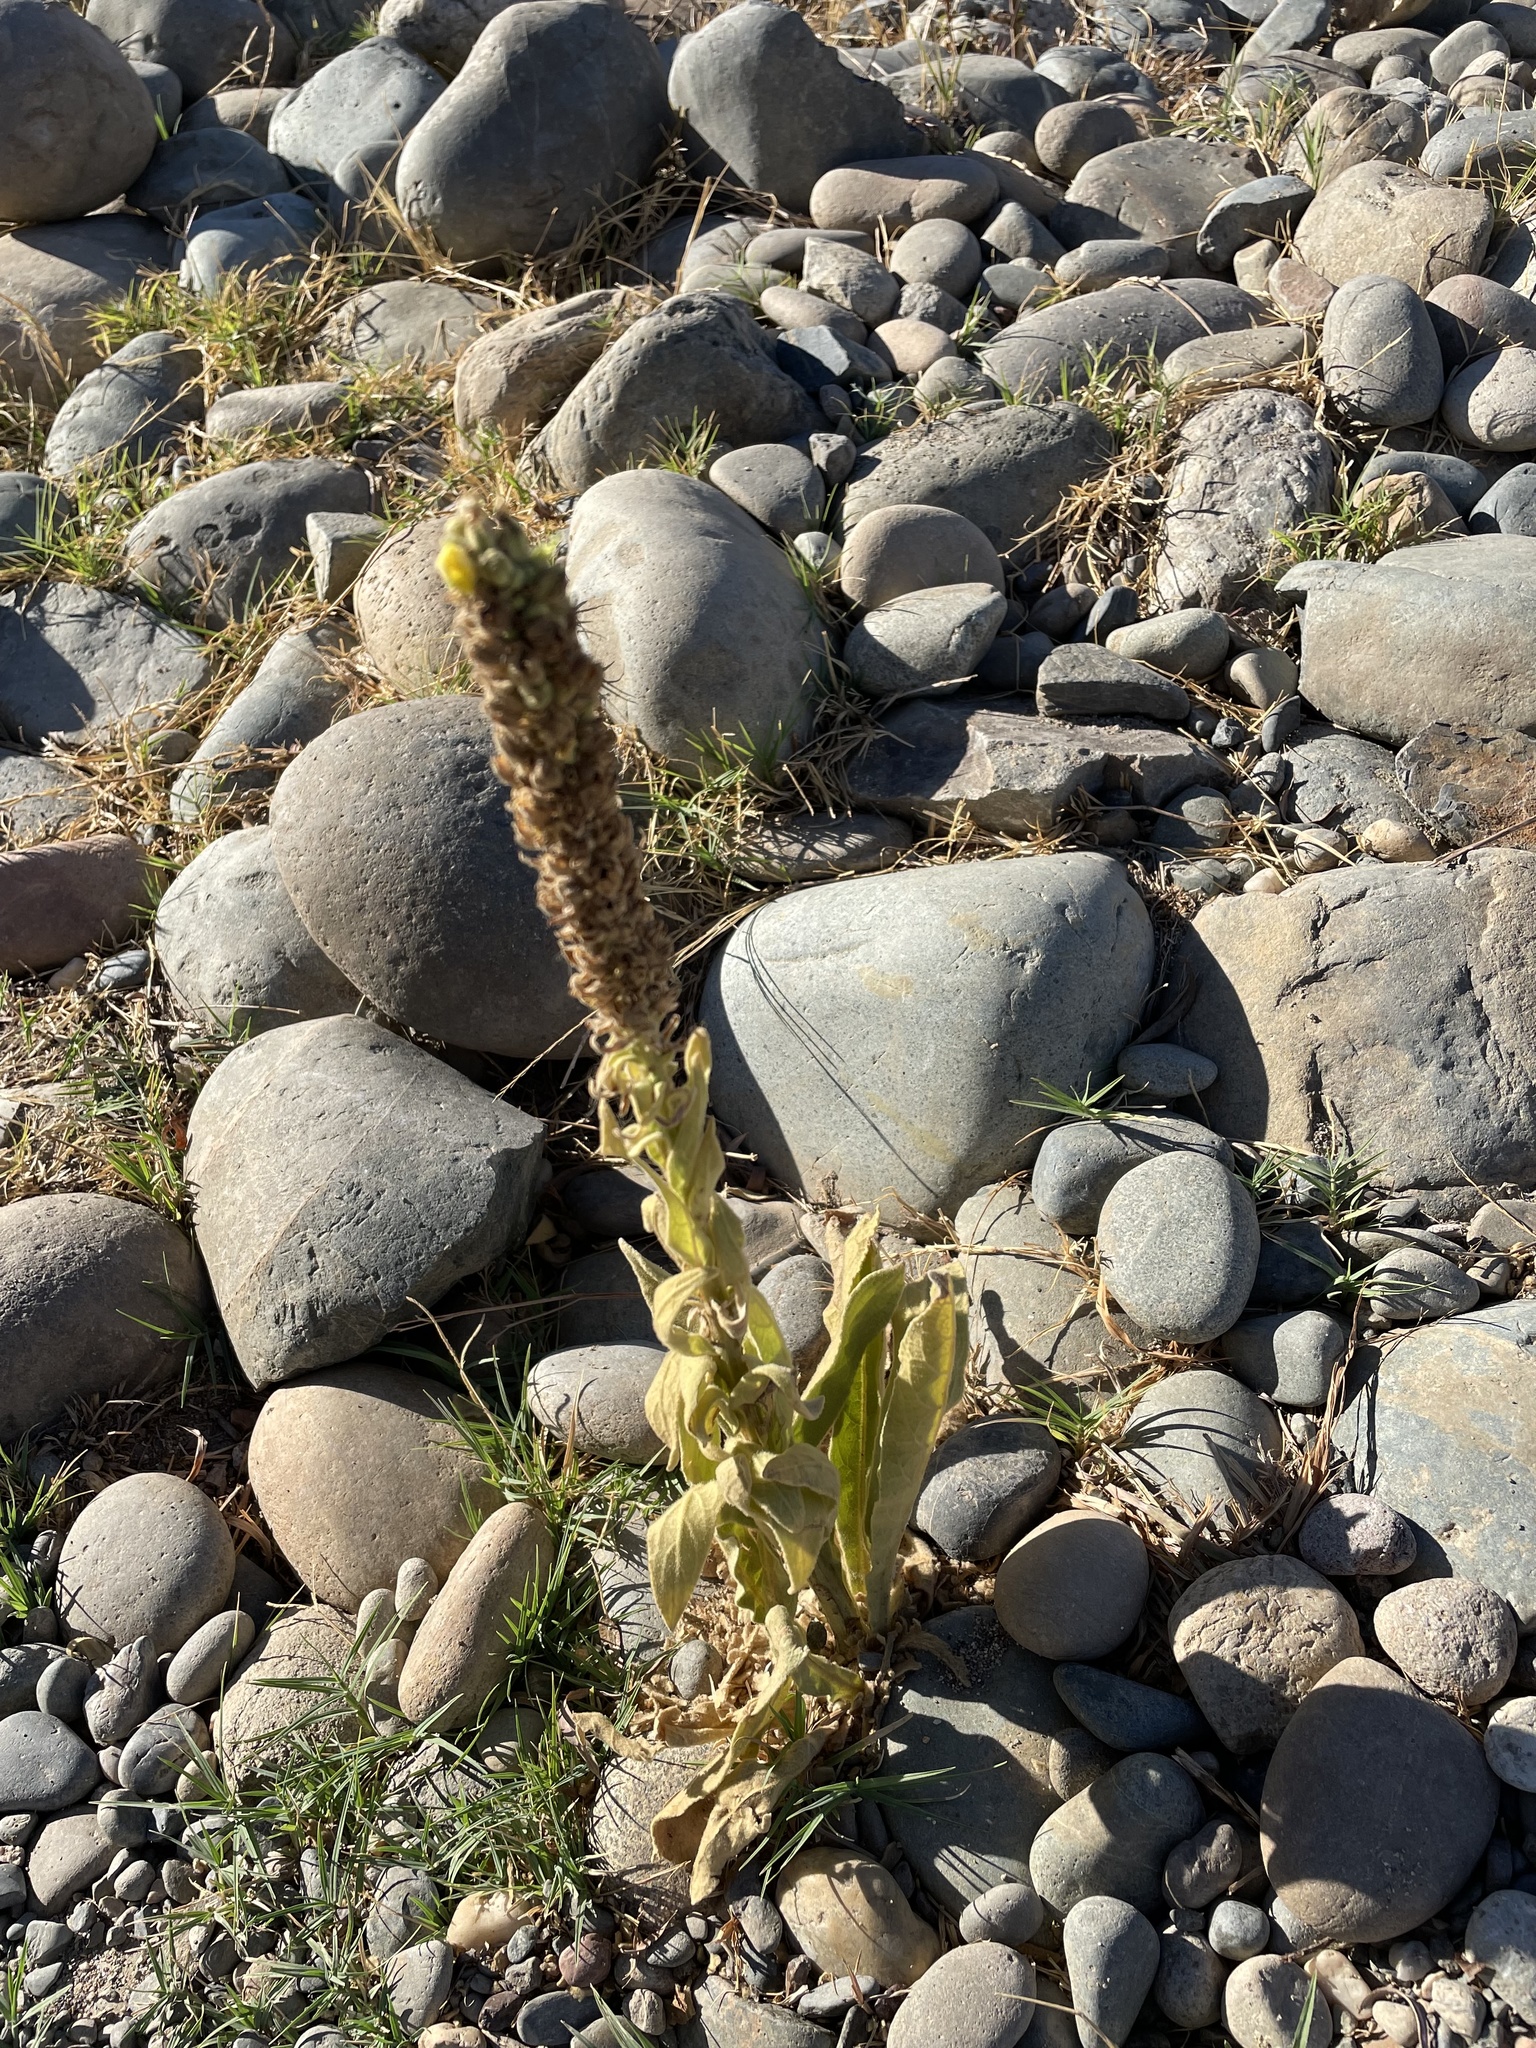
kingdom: Plantae
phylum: Tracheophyta
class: Magnoliopsida
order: Lamiales
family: Scrophulariaceae
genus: Verbascum
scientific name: Verbascum thapsus
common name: Common mullein
